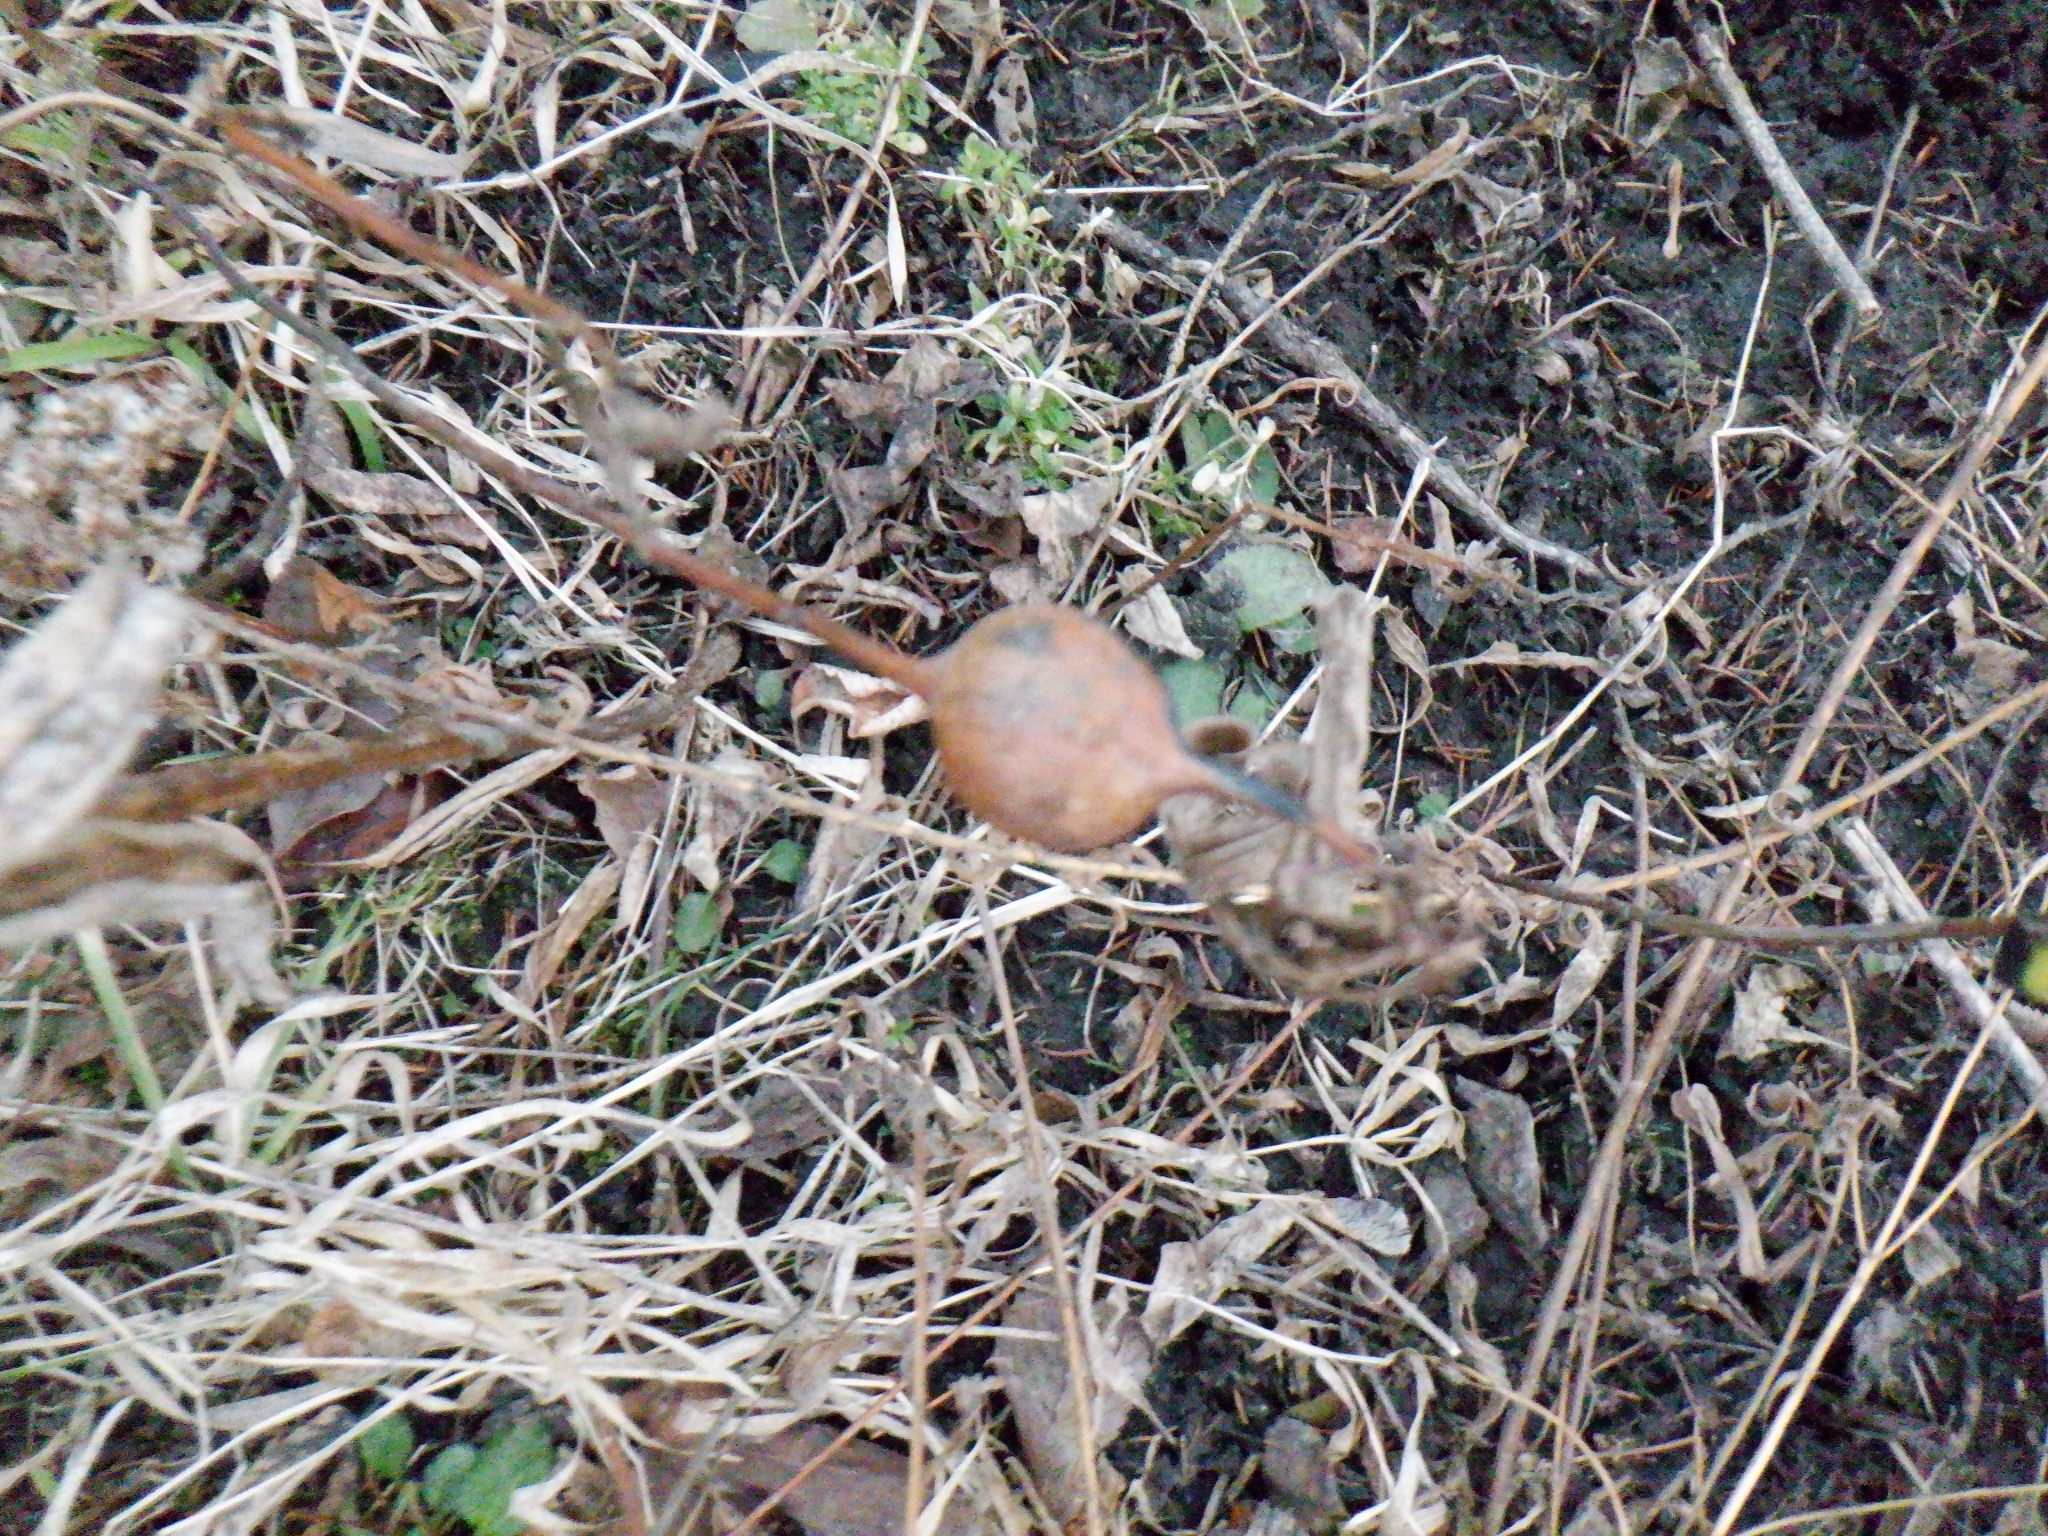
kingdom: Animalia
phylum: Arthropoda
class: Insecta
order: Diptera
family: Tephritidae
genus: Eurosta
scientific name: Eurosta solidaginis
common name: Goldenrod gall fly
